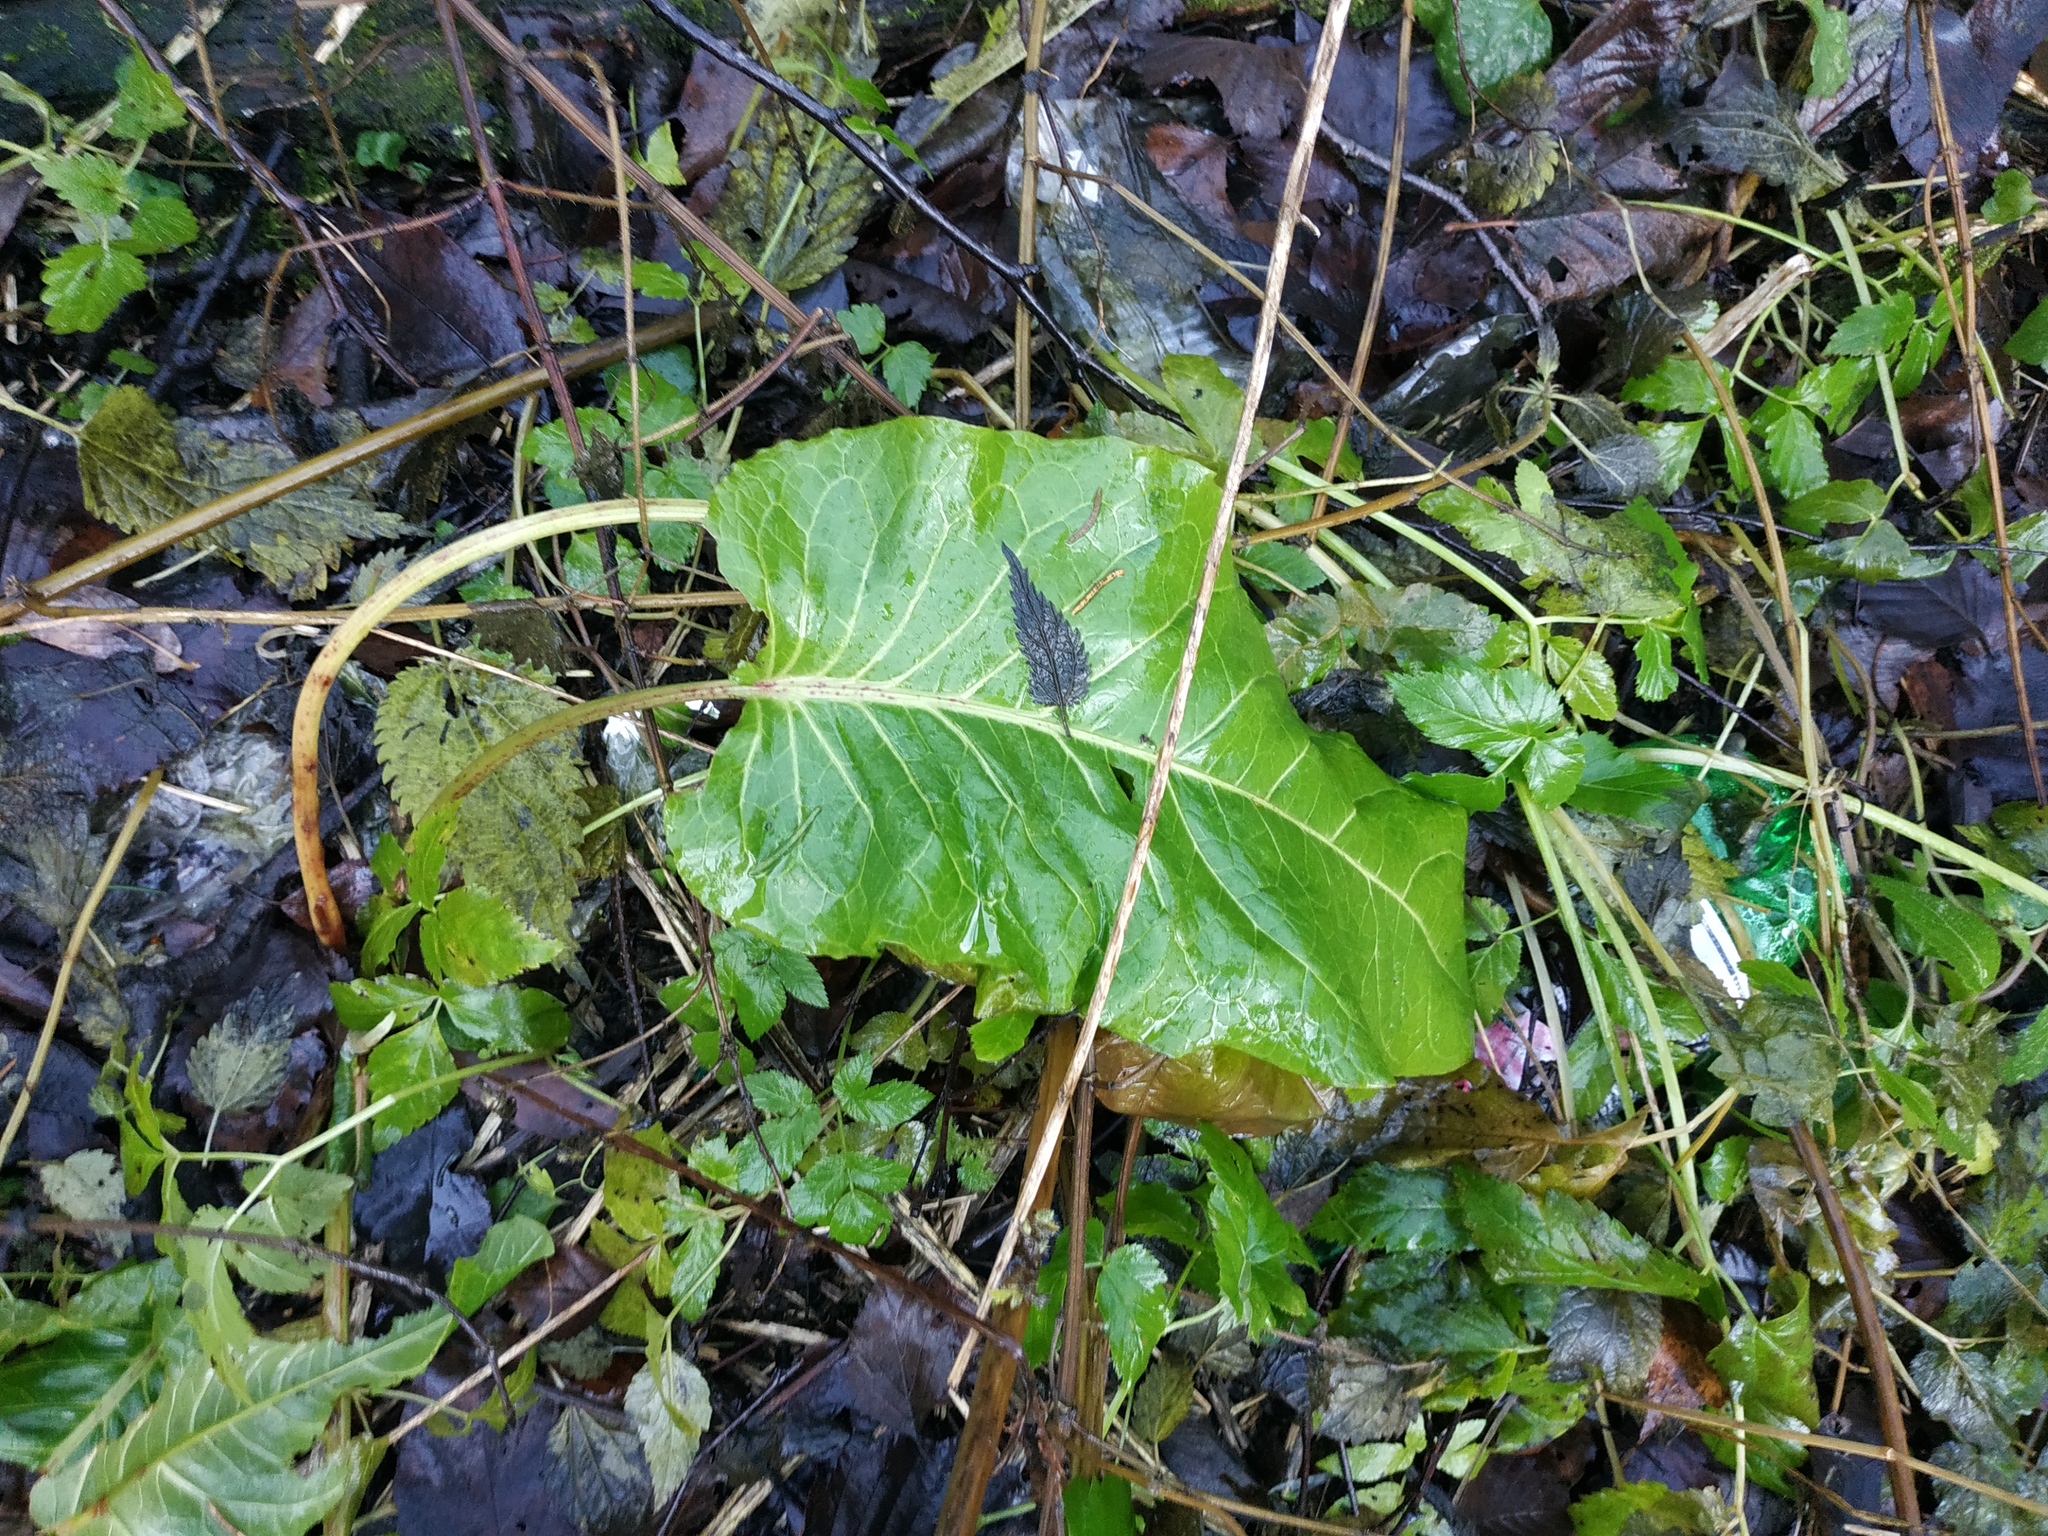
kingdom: Plantae
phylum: Tracheophyta
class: Magnoliopsida
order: Caryophyllales
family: Polygonaceae
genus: Rumex
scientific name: Rumex obtusifolius
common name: Bitter dock
